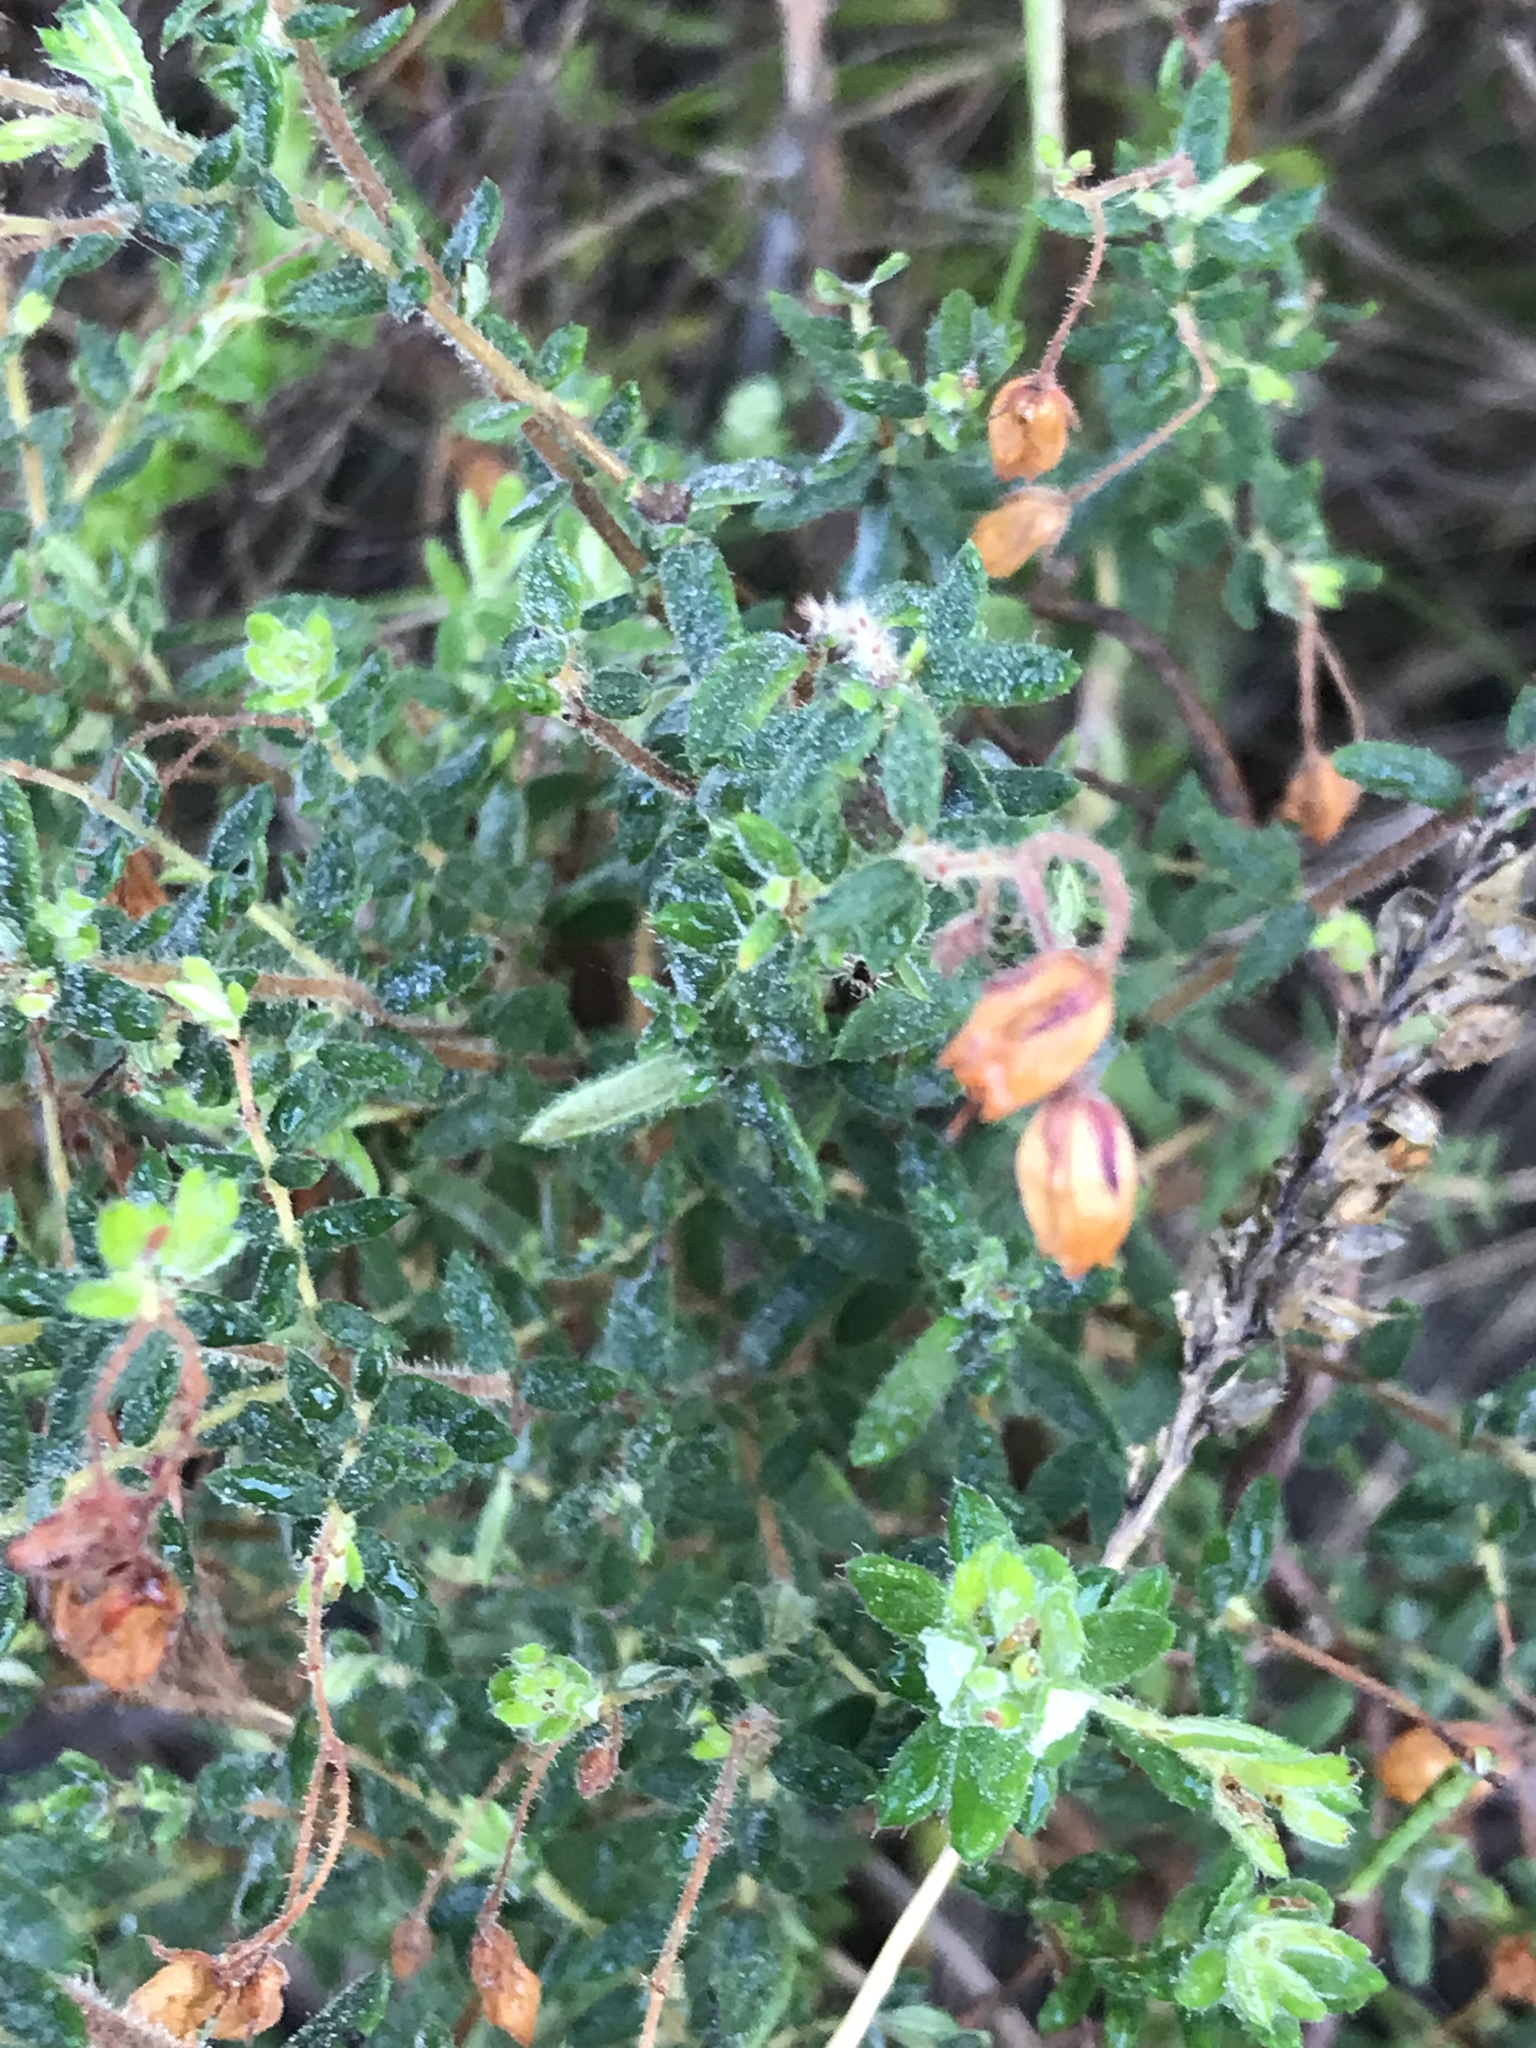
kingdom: Plantae
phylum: Tracheophyta
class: Magnoliopsida
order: Ericales
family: Ericaceae
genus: Erica
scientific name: Erica fausta
